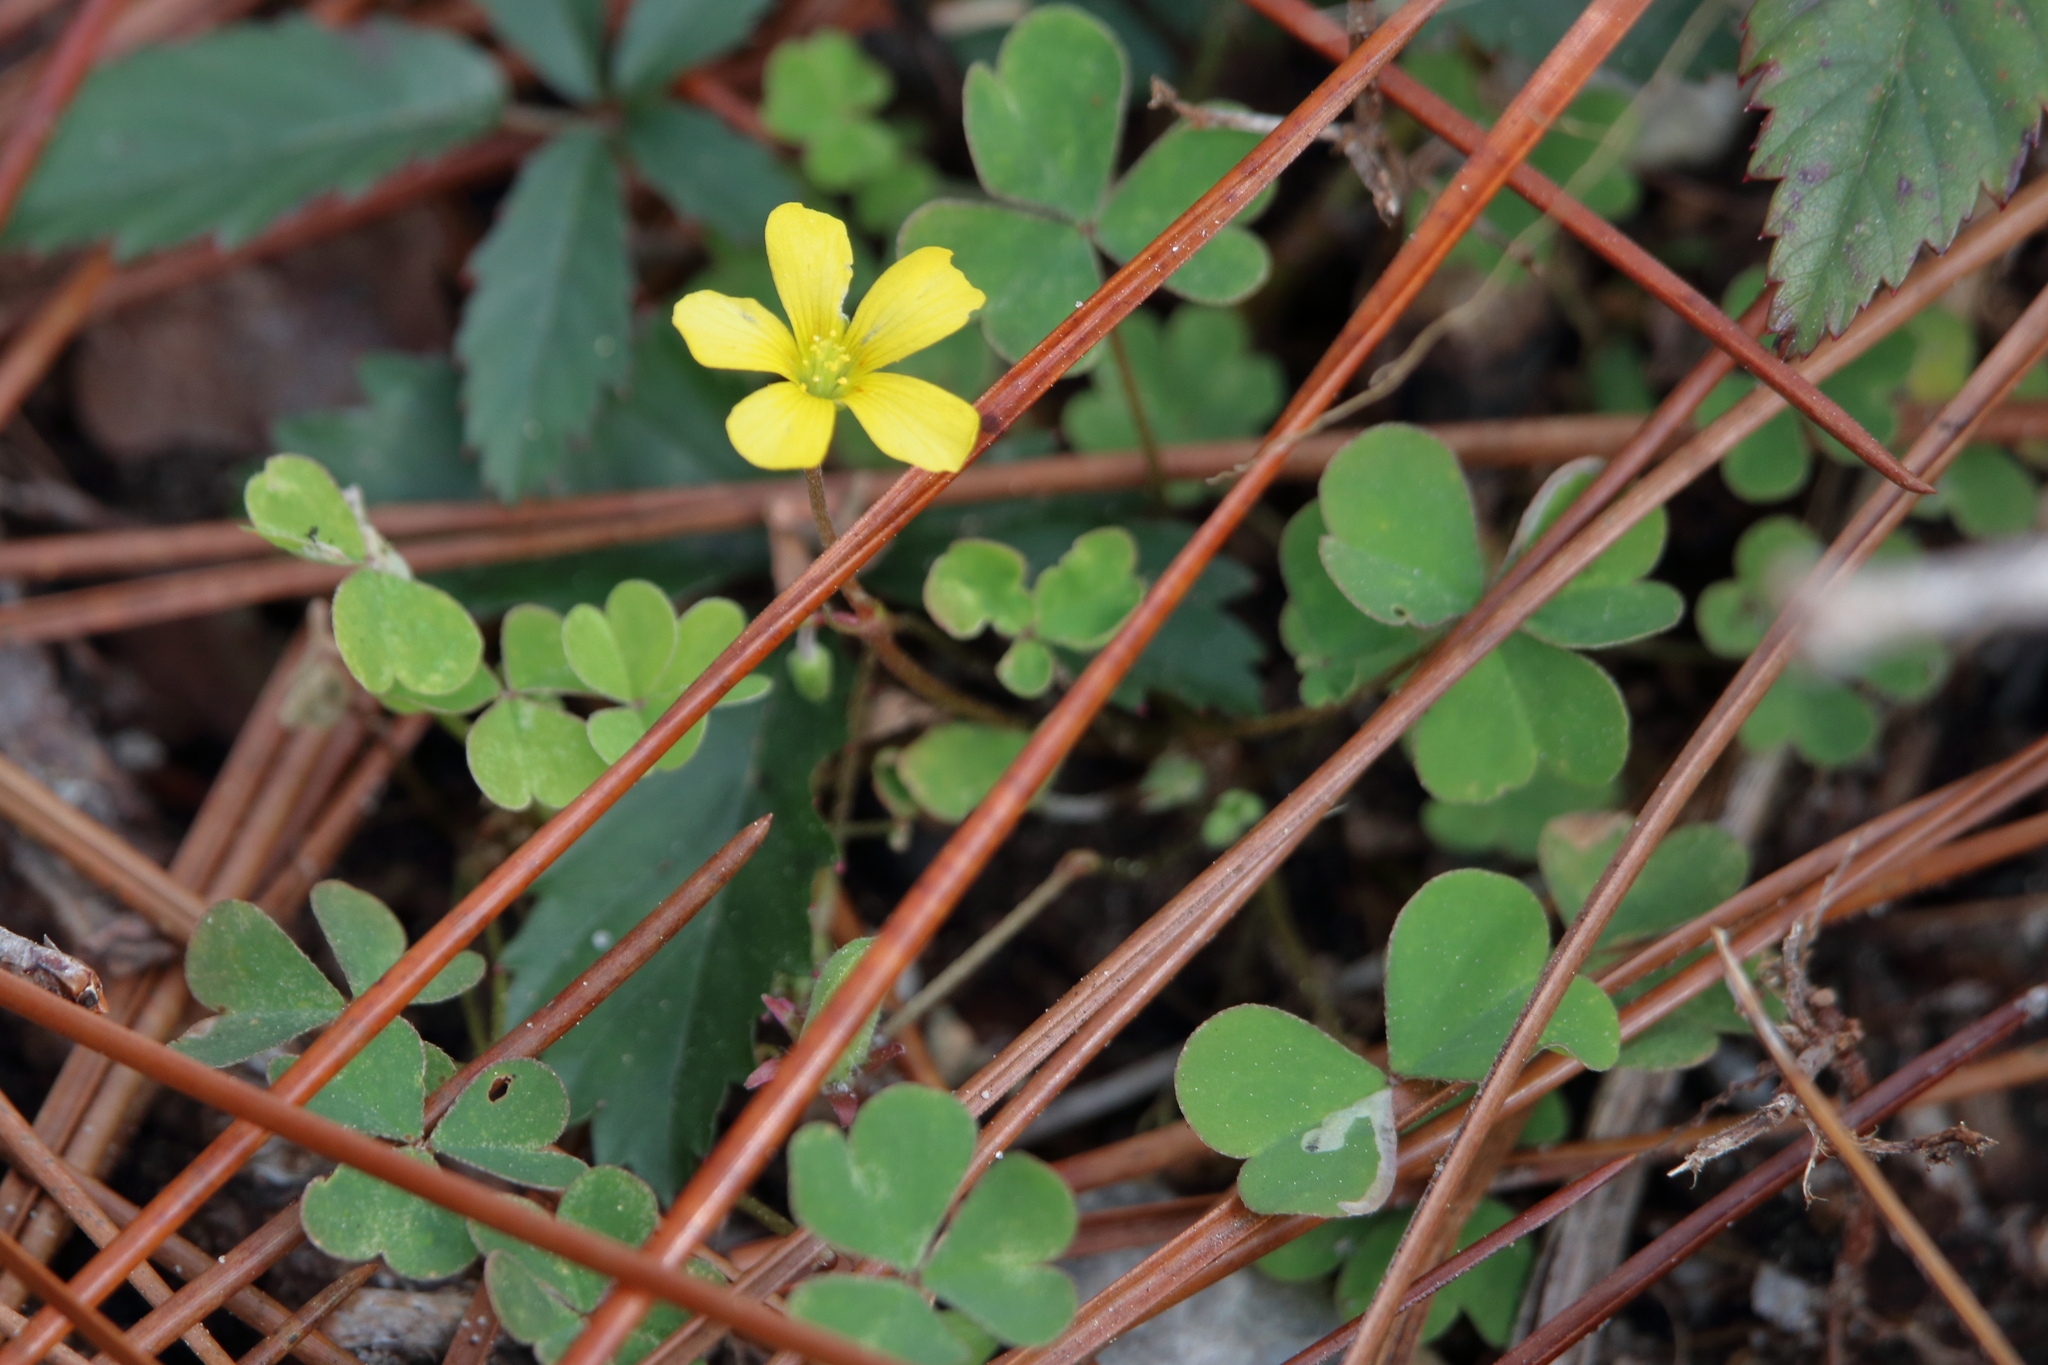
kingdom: Plantae
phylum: Tracheophyta
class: Magnoliopsida
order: Oxalidales
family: Oxalidaceae
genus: Oxalis
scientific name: Oxalis corniculata
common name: Procumbent yellow-sorrel
